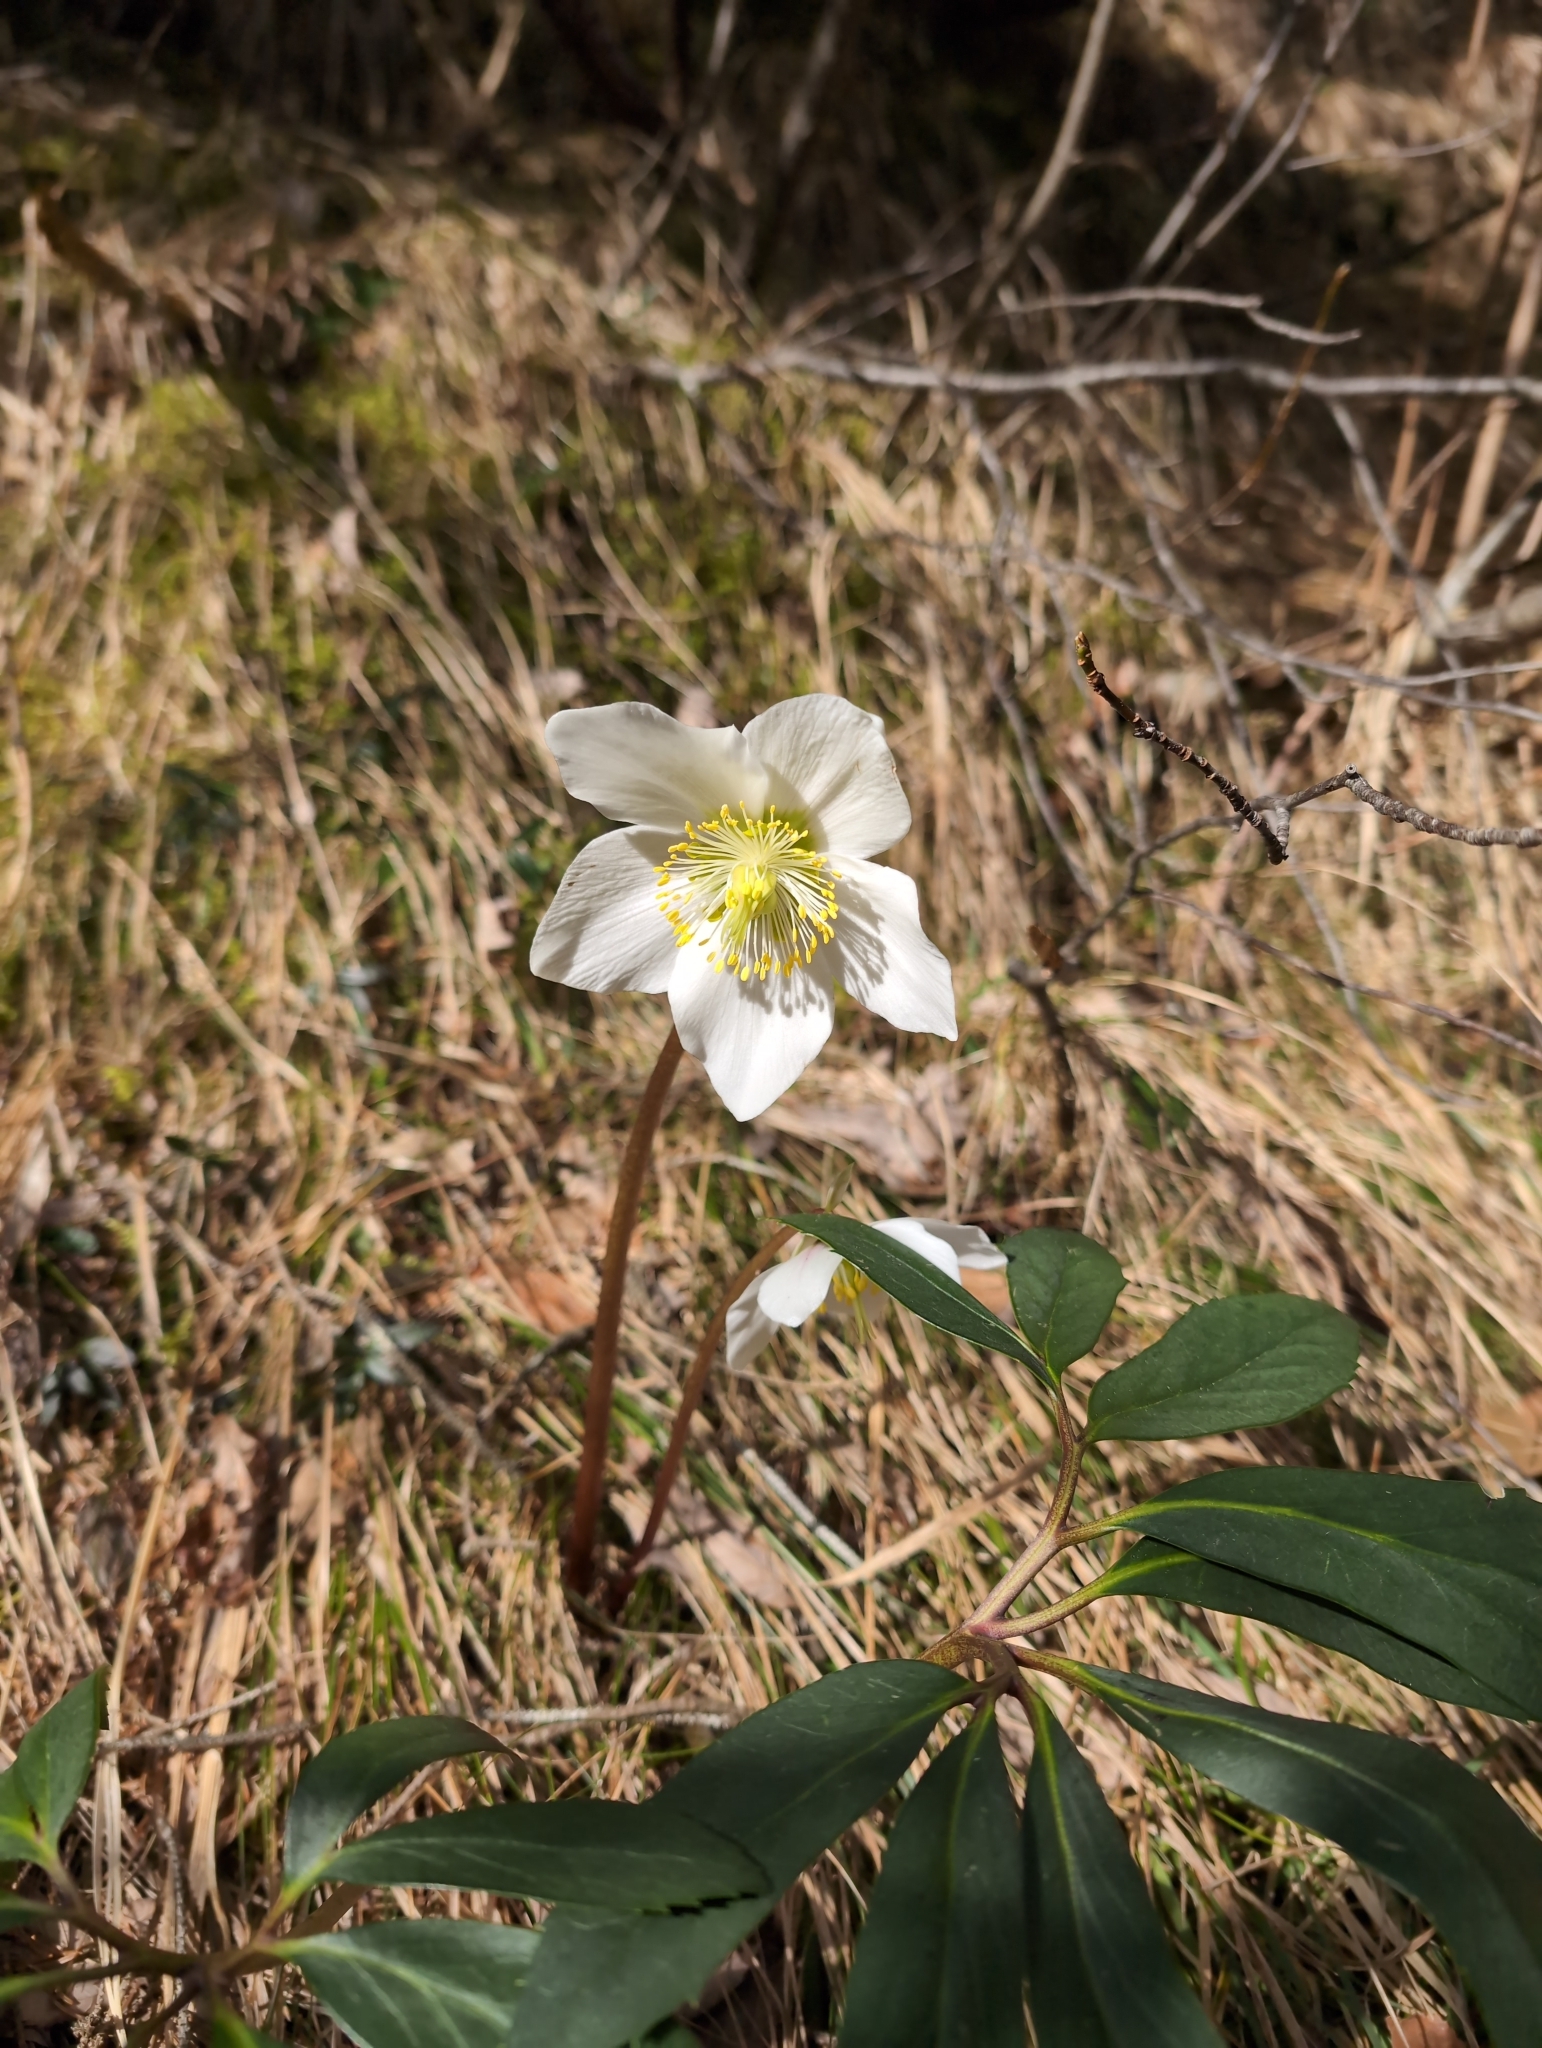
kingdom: Plantae
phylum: Tracheophyta
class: Magnoliopsida
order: Ranunculales
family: Ranunculaceae
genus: Helleborus
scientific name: Helleborus niger
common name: Black hellebore
